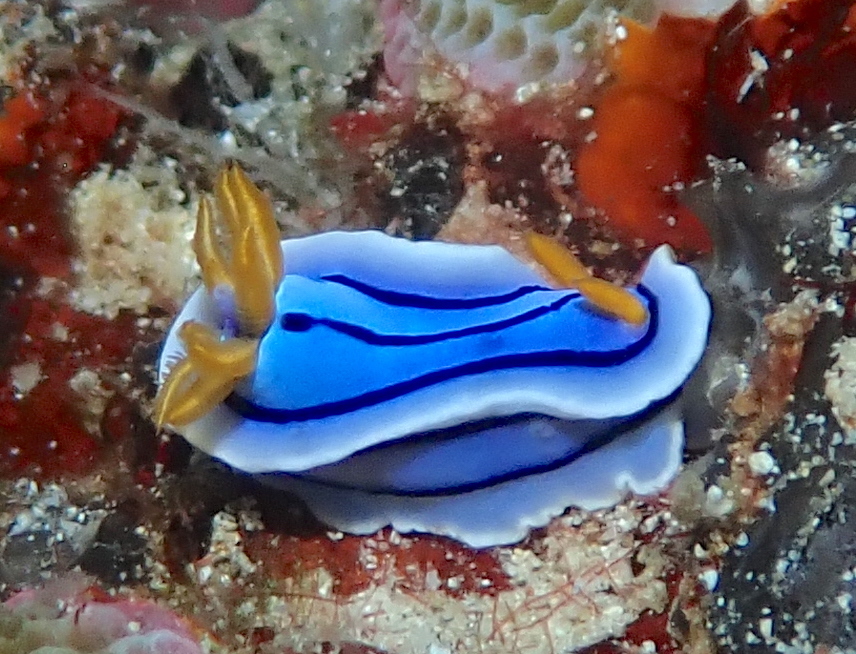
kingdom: Animalia
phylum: Mollusca
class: Gastropoda
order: Nudibranchia
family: Chromodorididae
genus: Chromodoris
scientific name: Chromodoris lochi
